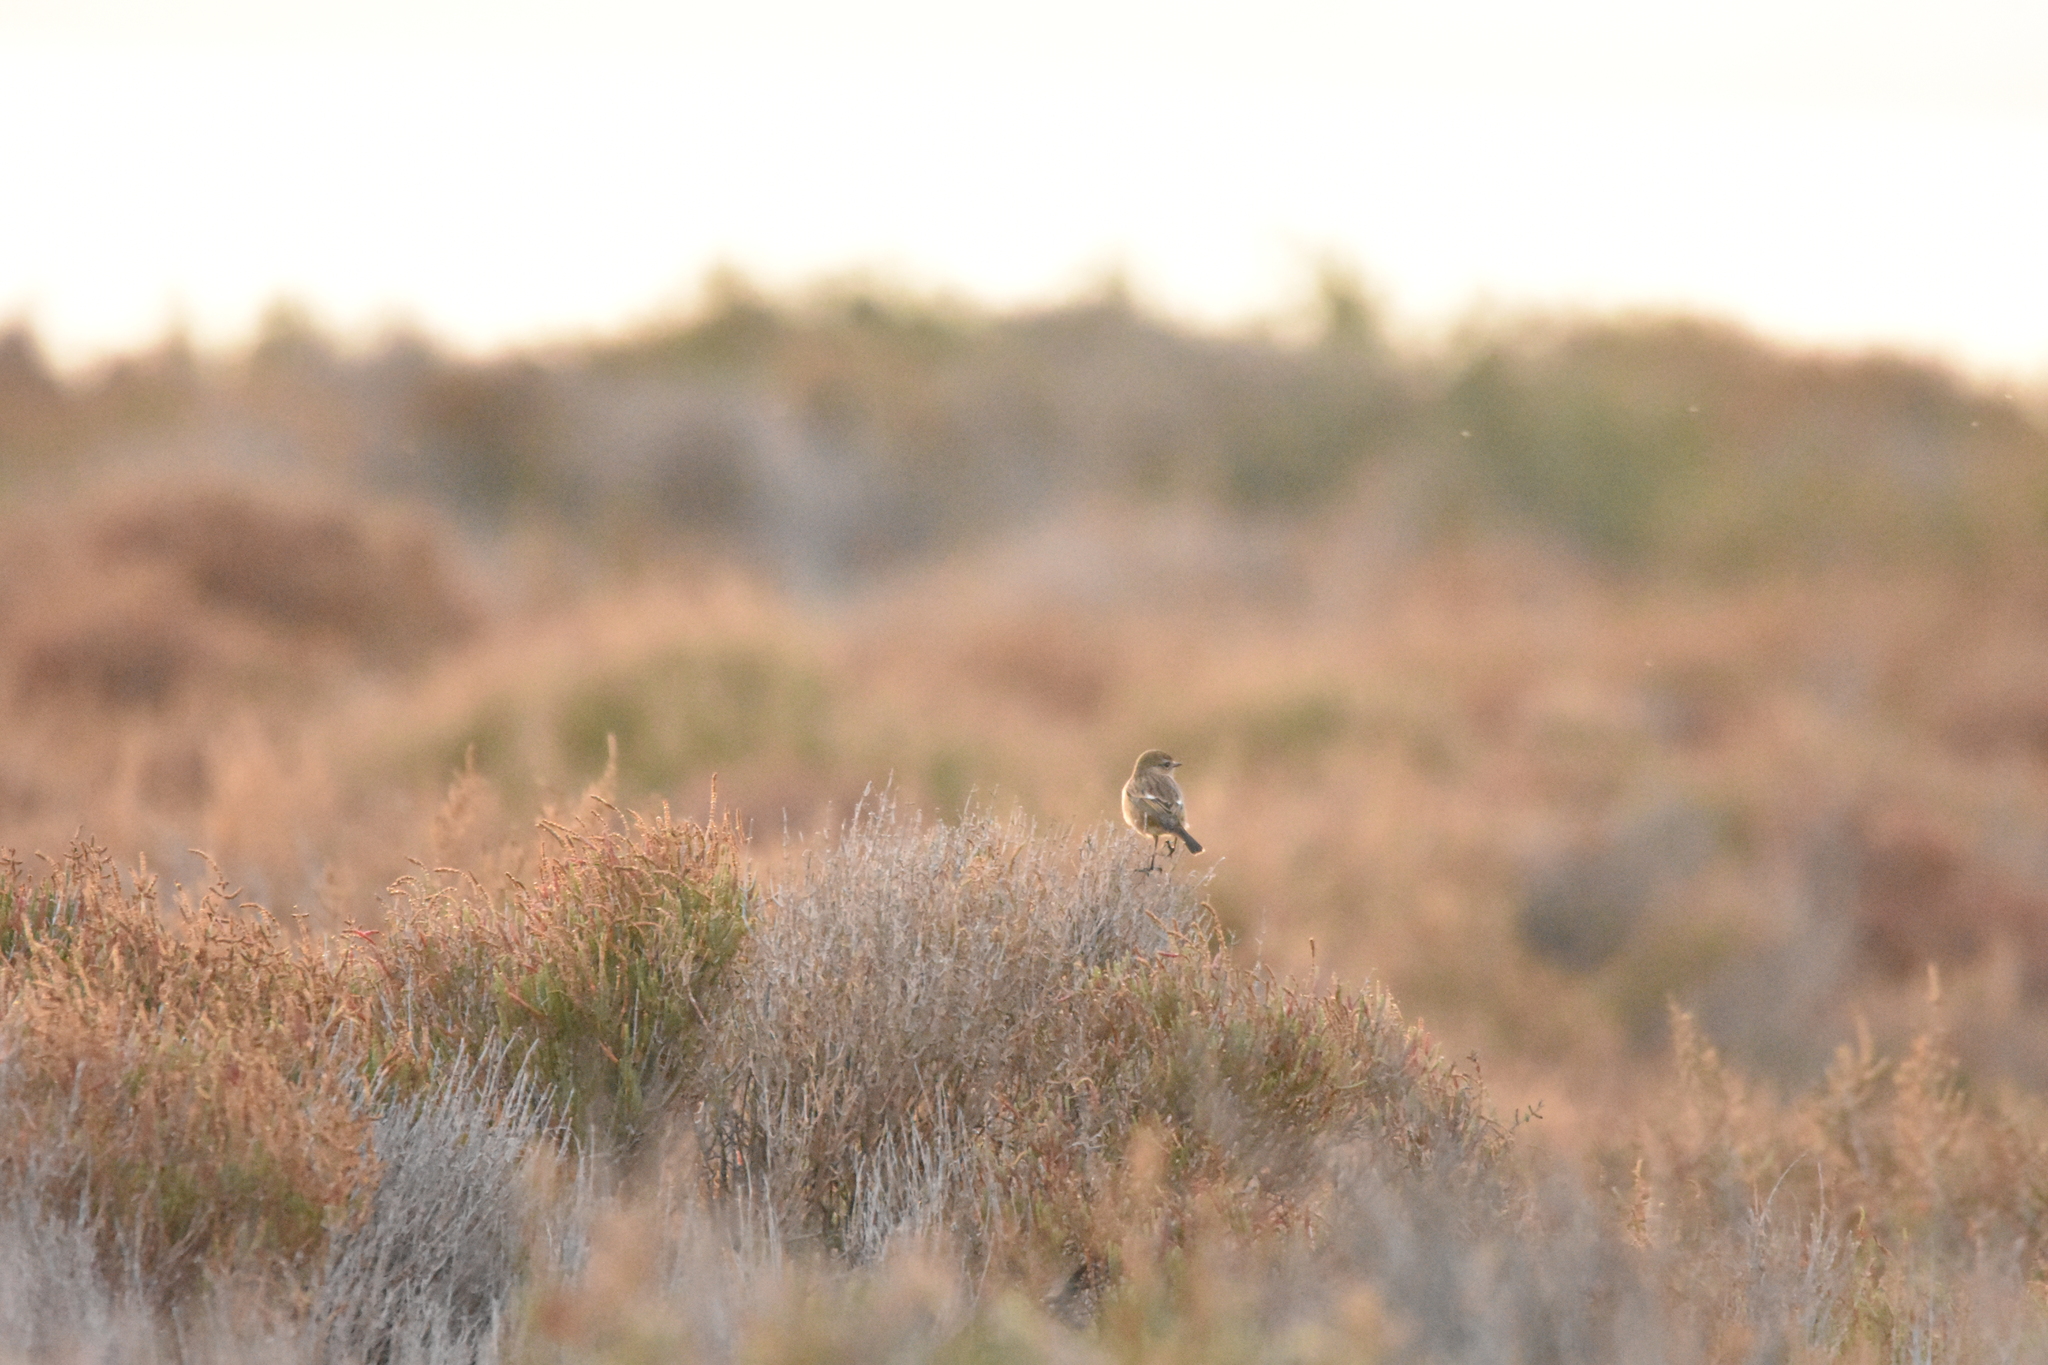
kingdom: Animalia
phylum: Chordata
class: Aves
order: Passeriformes
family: Muscicapidae
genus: Saxicola
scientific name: Saxicola rubicola
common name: European stonechat
